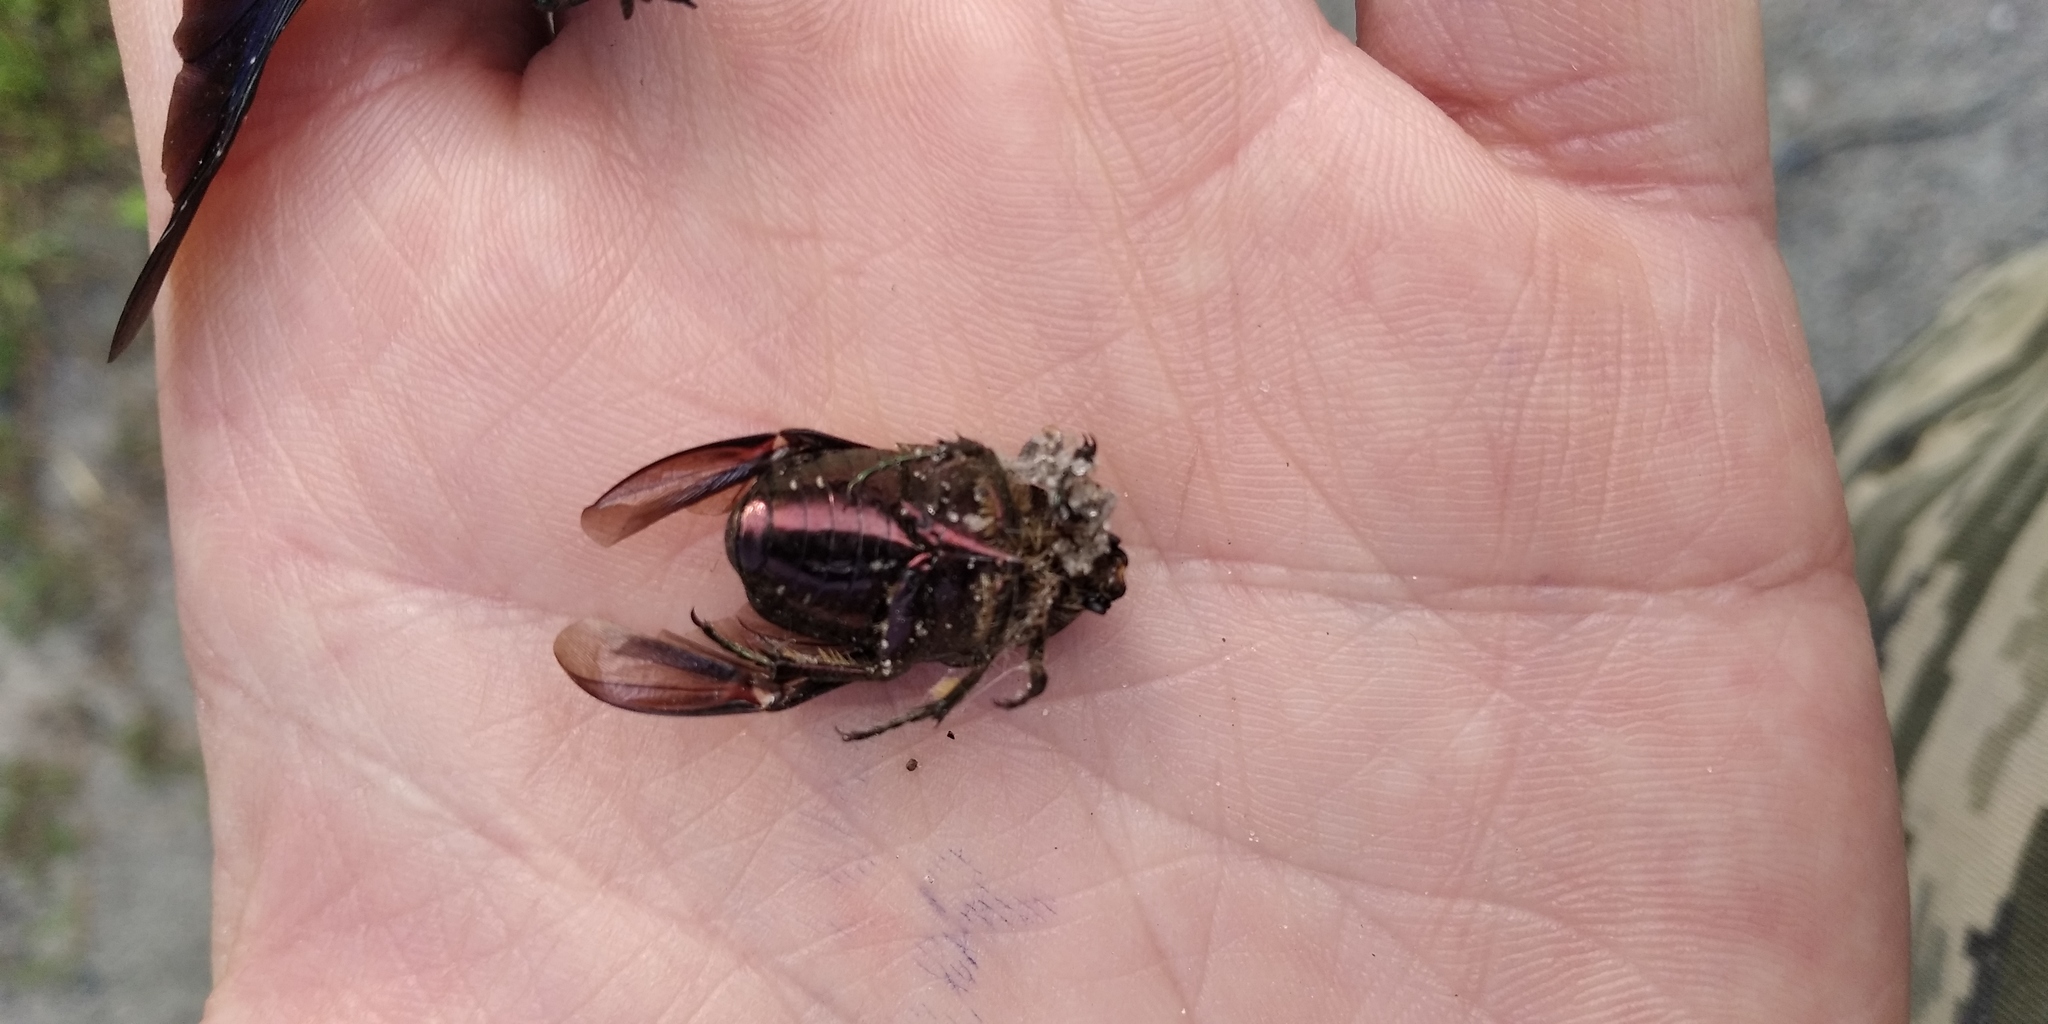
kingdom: Animalia
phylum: Arthropoda
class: Insecta
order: Coleoptera
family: Scarabaeidae
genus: Cetonia
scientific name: Cetonia aurata
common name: Rose chafer
